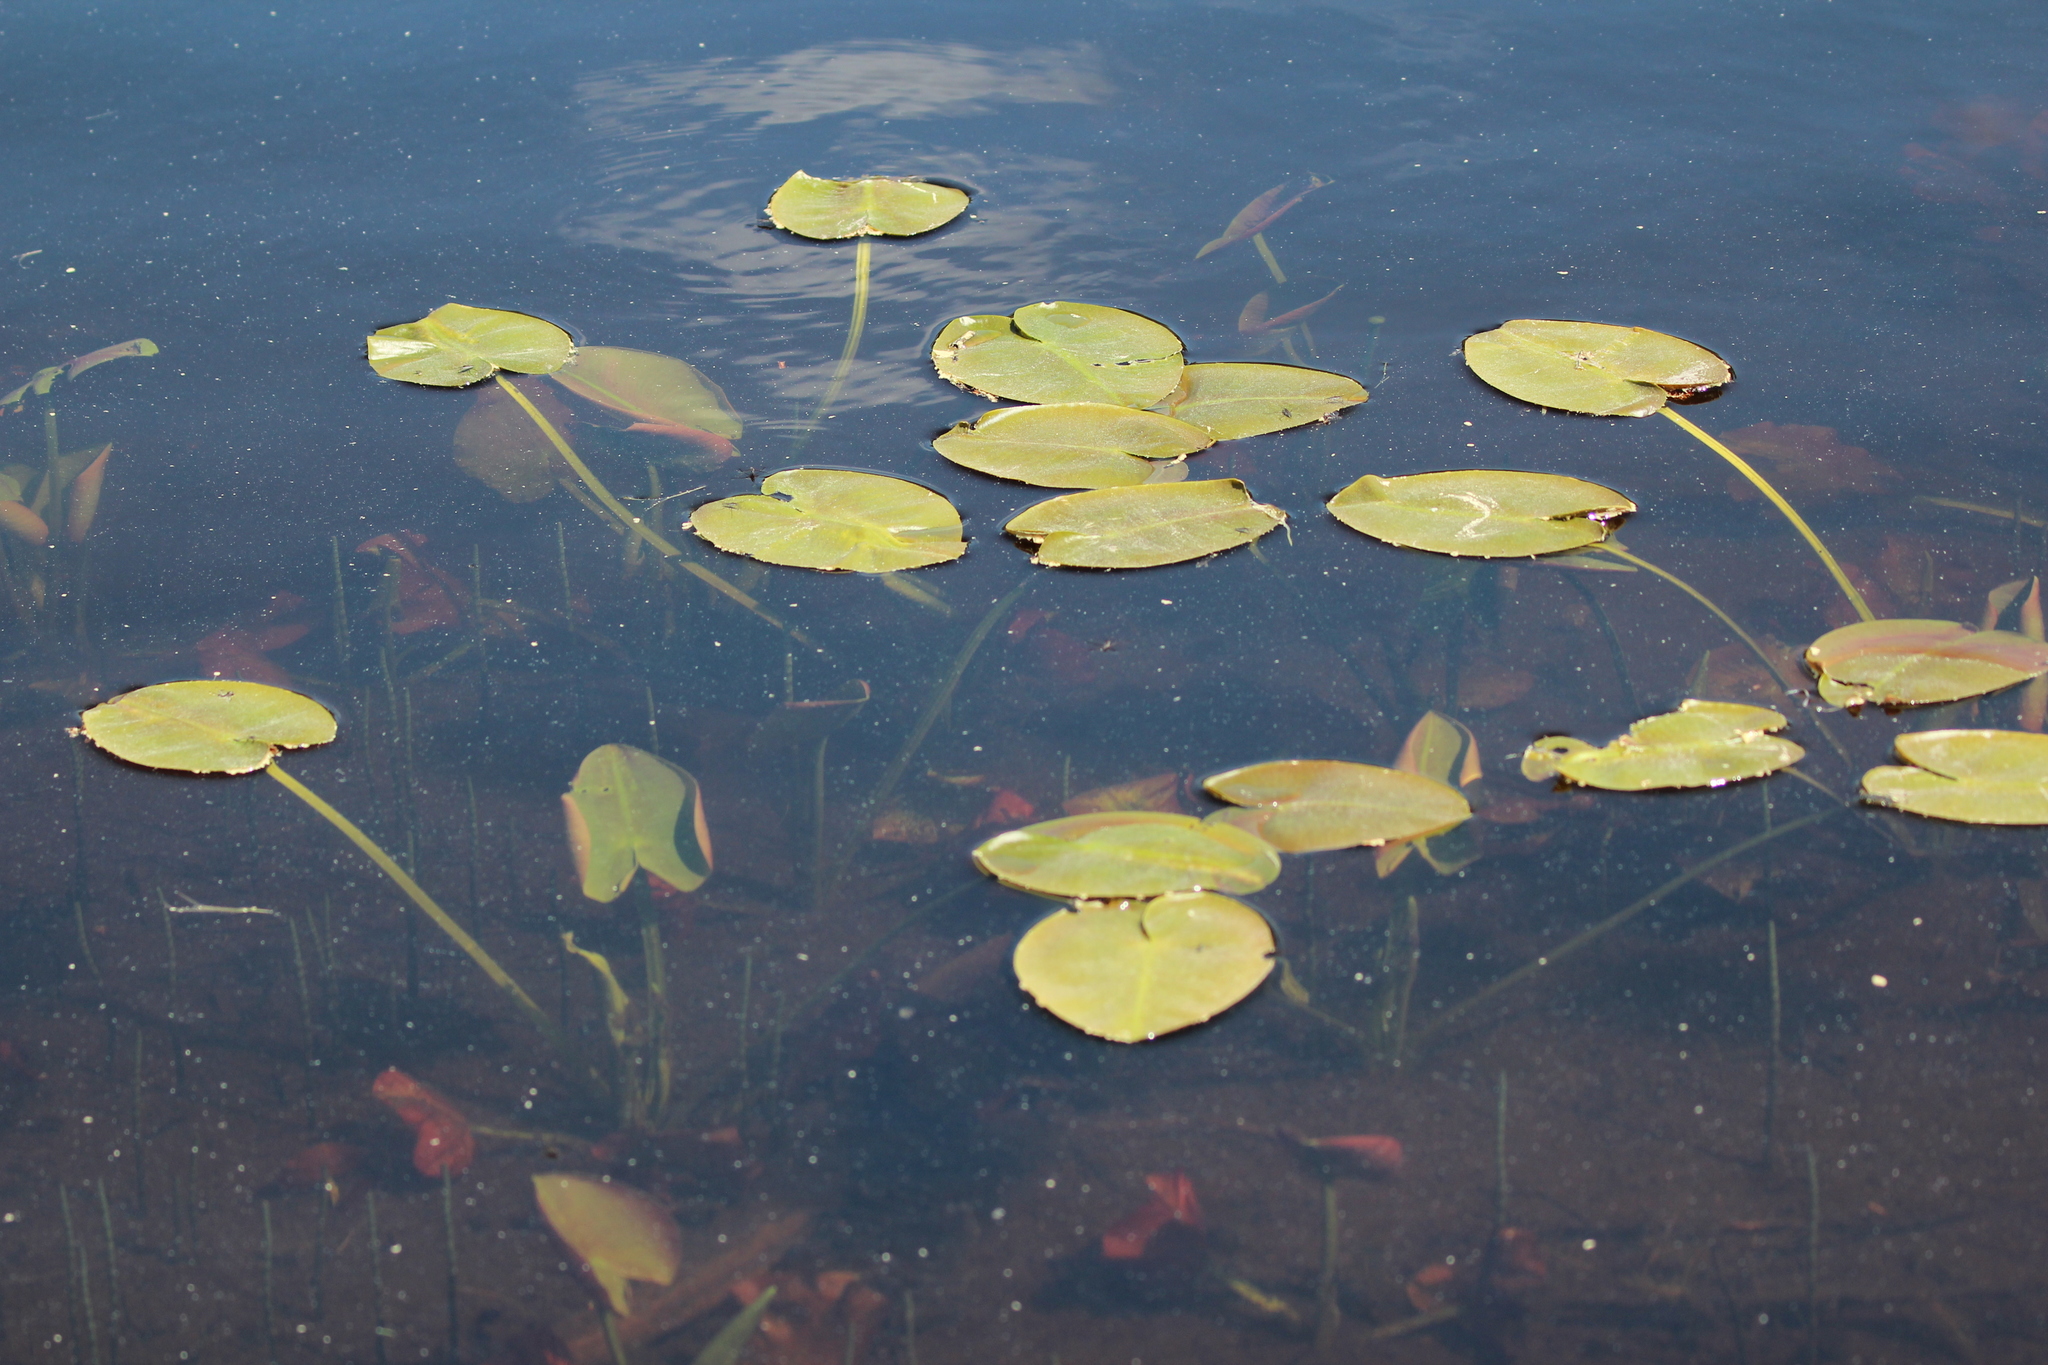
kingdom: Plantae
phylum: Tracheophyta
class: Magnoliopsida
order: Nymphaeales
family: Nymphaeaceae
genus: Nuphar
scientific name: Nuphar variegata
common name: Beaver-root
